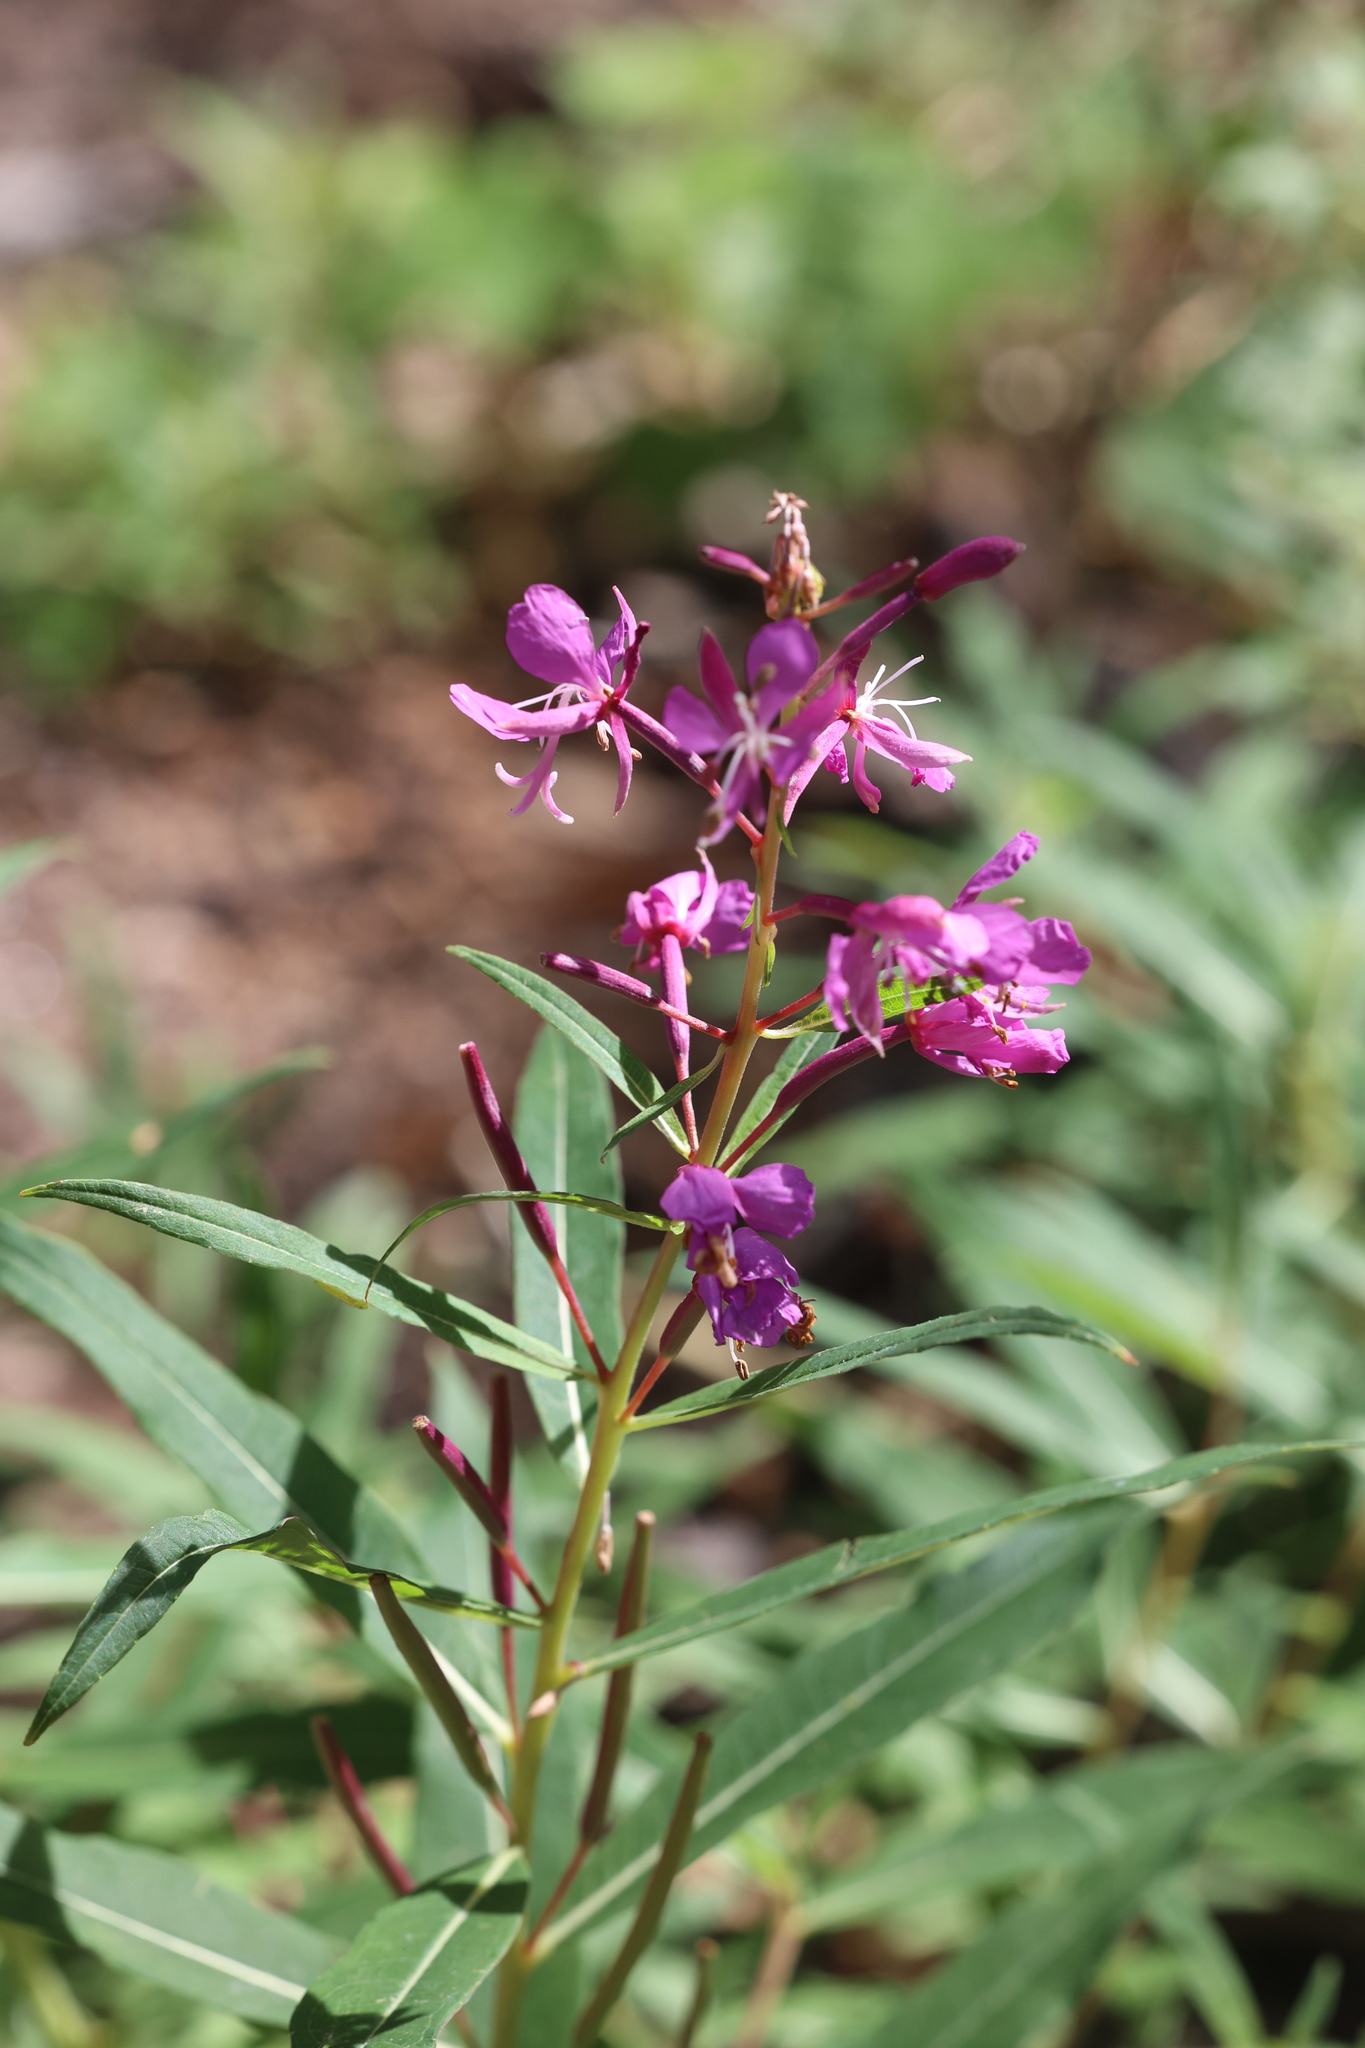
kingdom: Plantae
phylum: Tracheophyta
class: Magnoliopsida
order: Myrtales
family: Onagraceae
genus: Chamaenerion
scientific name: Chamaenerion angustifolium
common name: Fireweed
